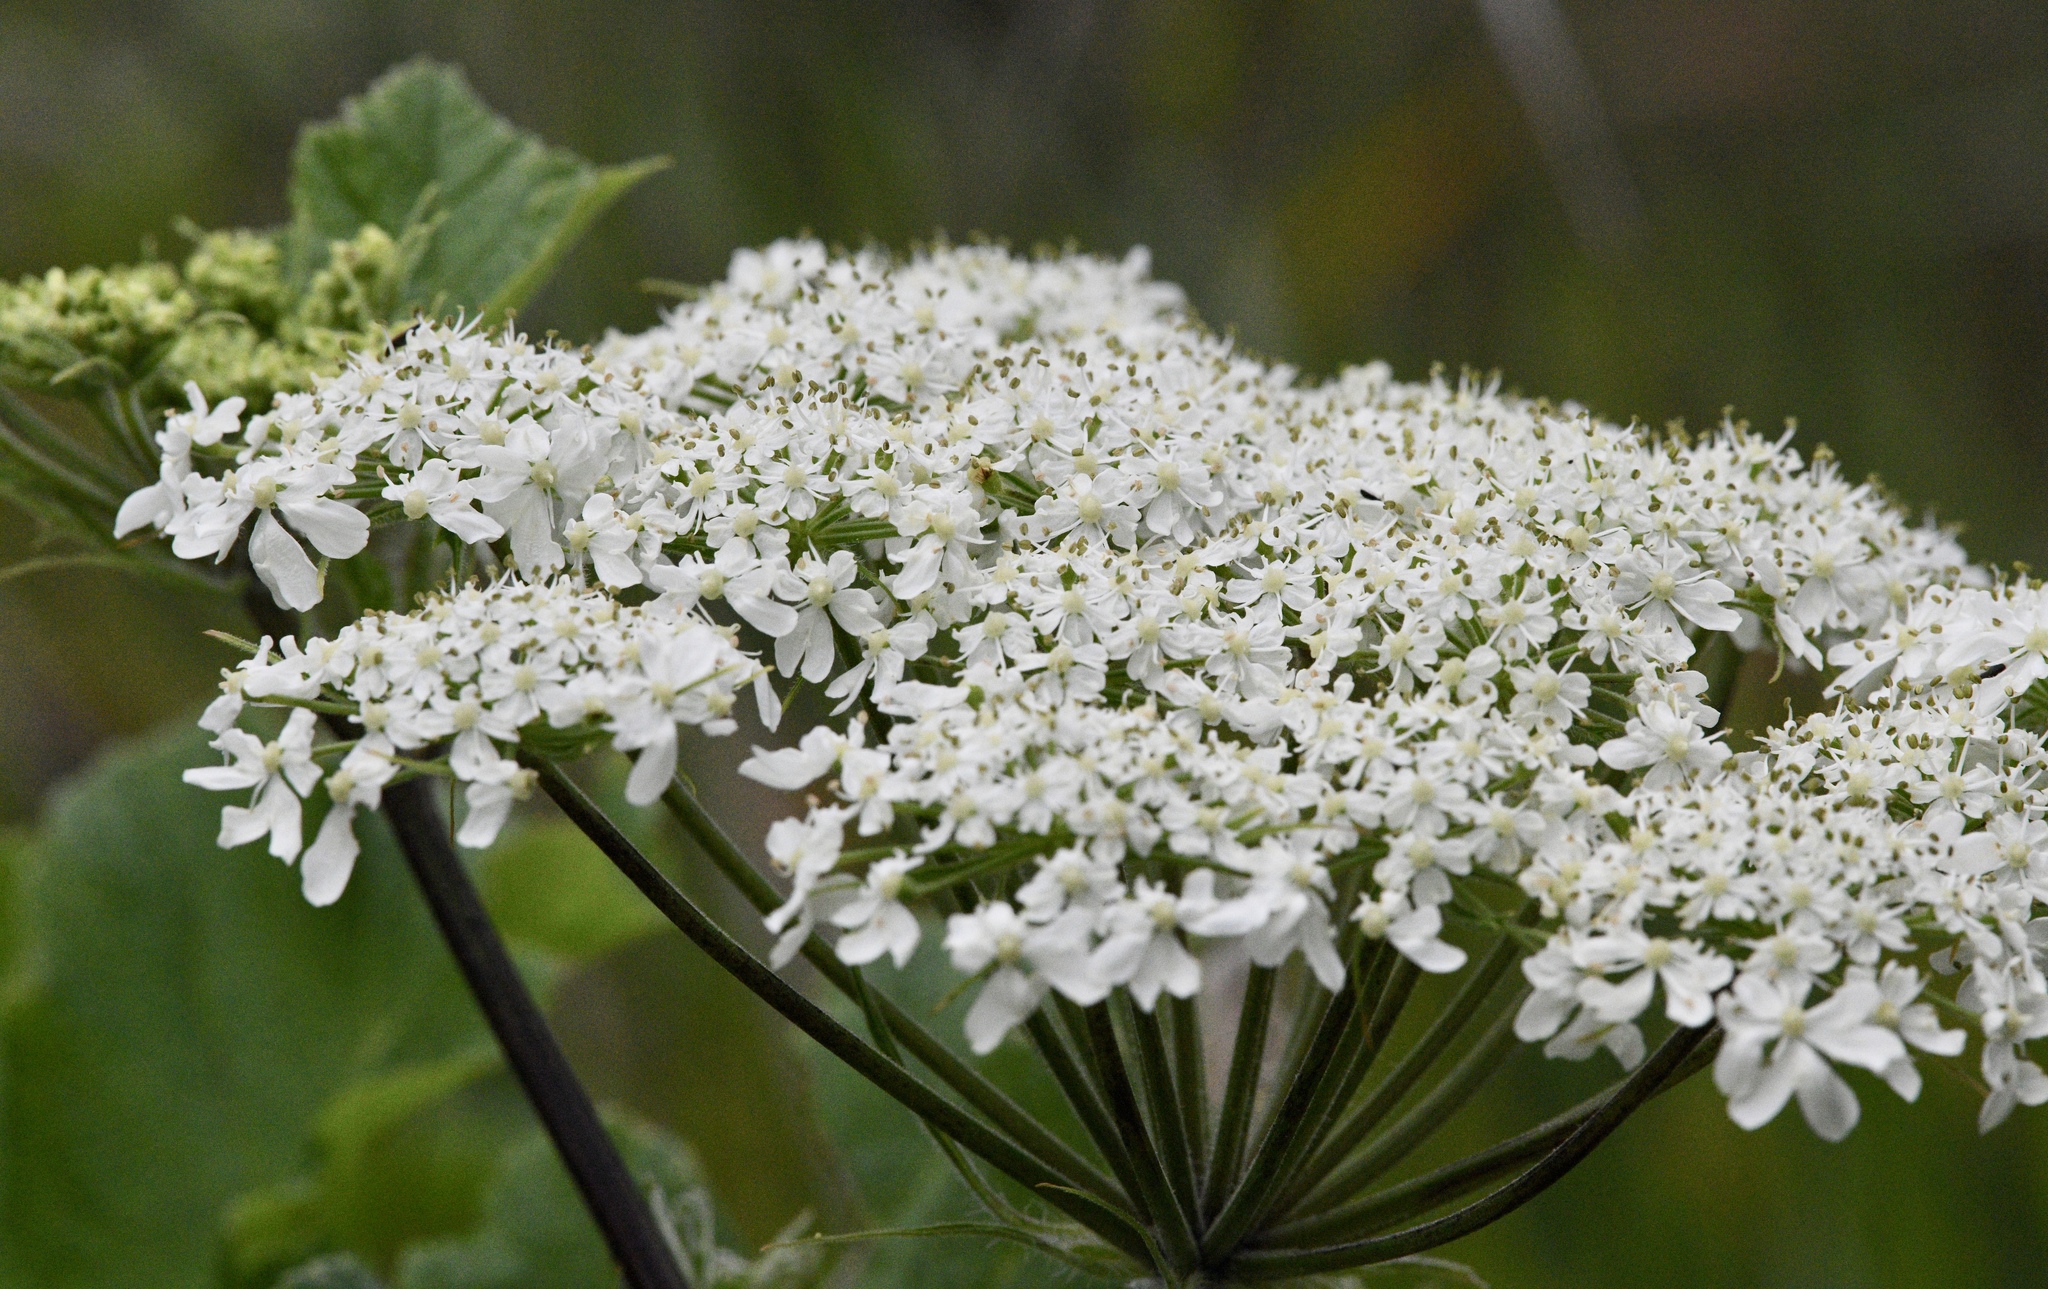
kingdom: Plantae
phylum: Tracheophyta
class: Magnoliopsida
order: Apiales
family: Apiaceae
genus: Heracleum
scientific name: Heracleum maximum
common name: American cow parsnip
